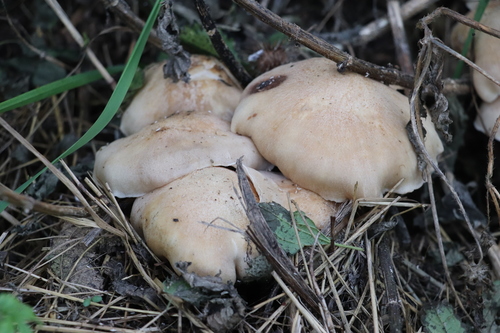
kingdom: Fungi
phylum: Basidiomycota
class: Agaricomycetes
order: Agaricales
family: Lyophyllaceae
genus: Lyophyllum
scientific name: Lyophyllum
